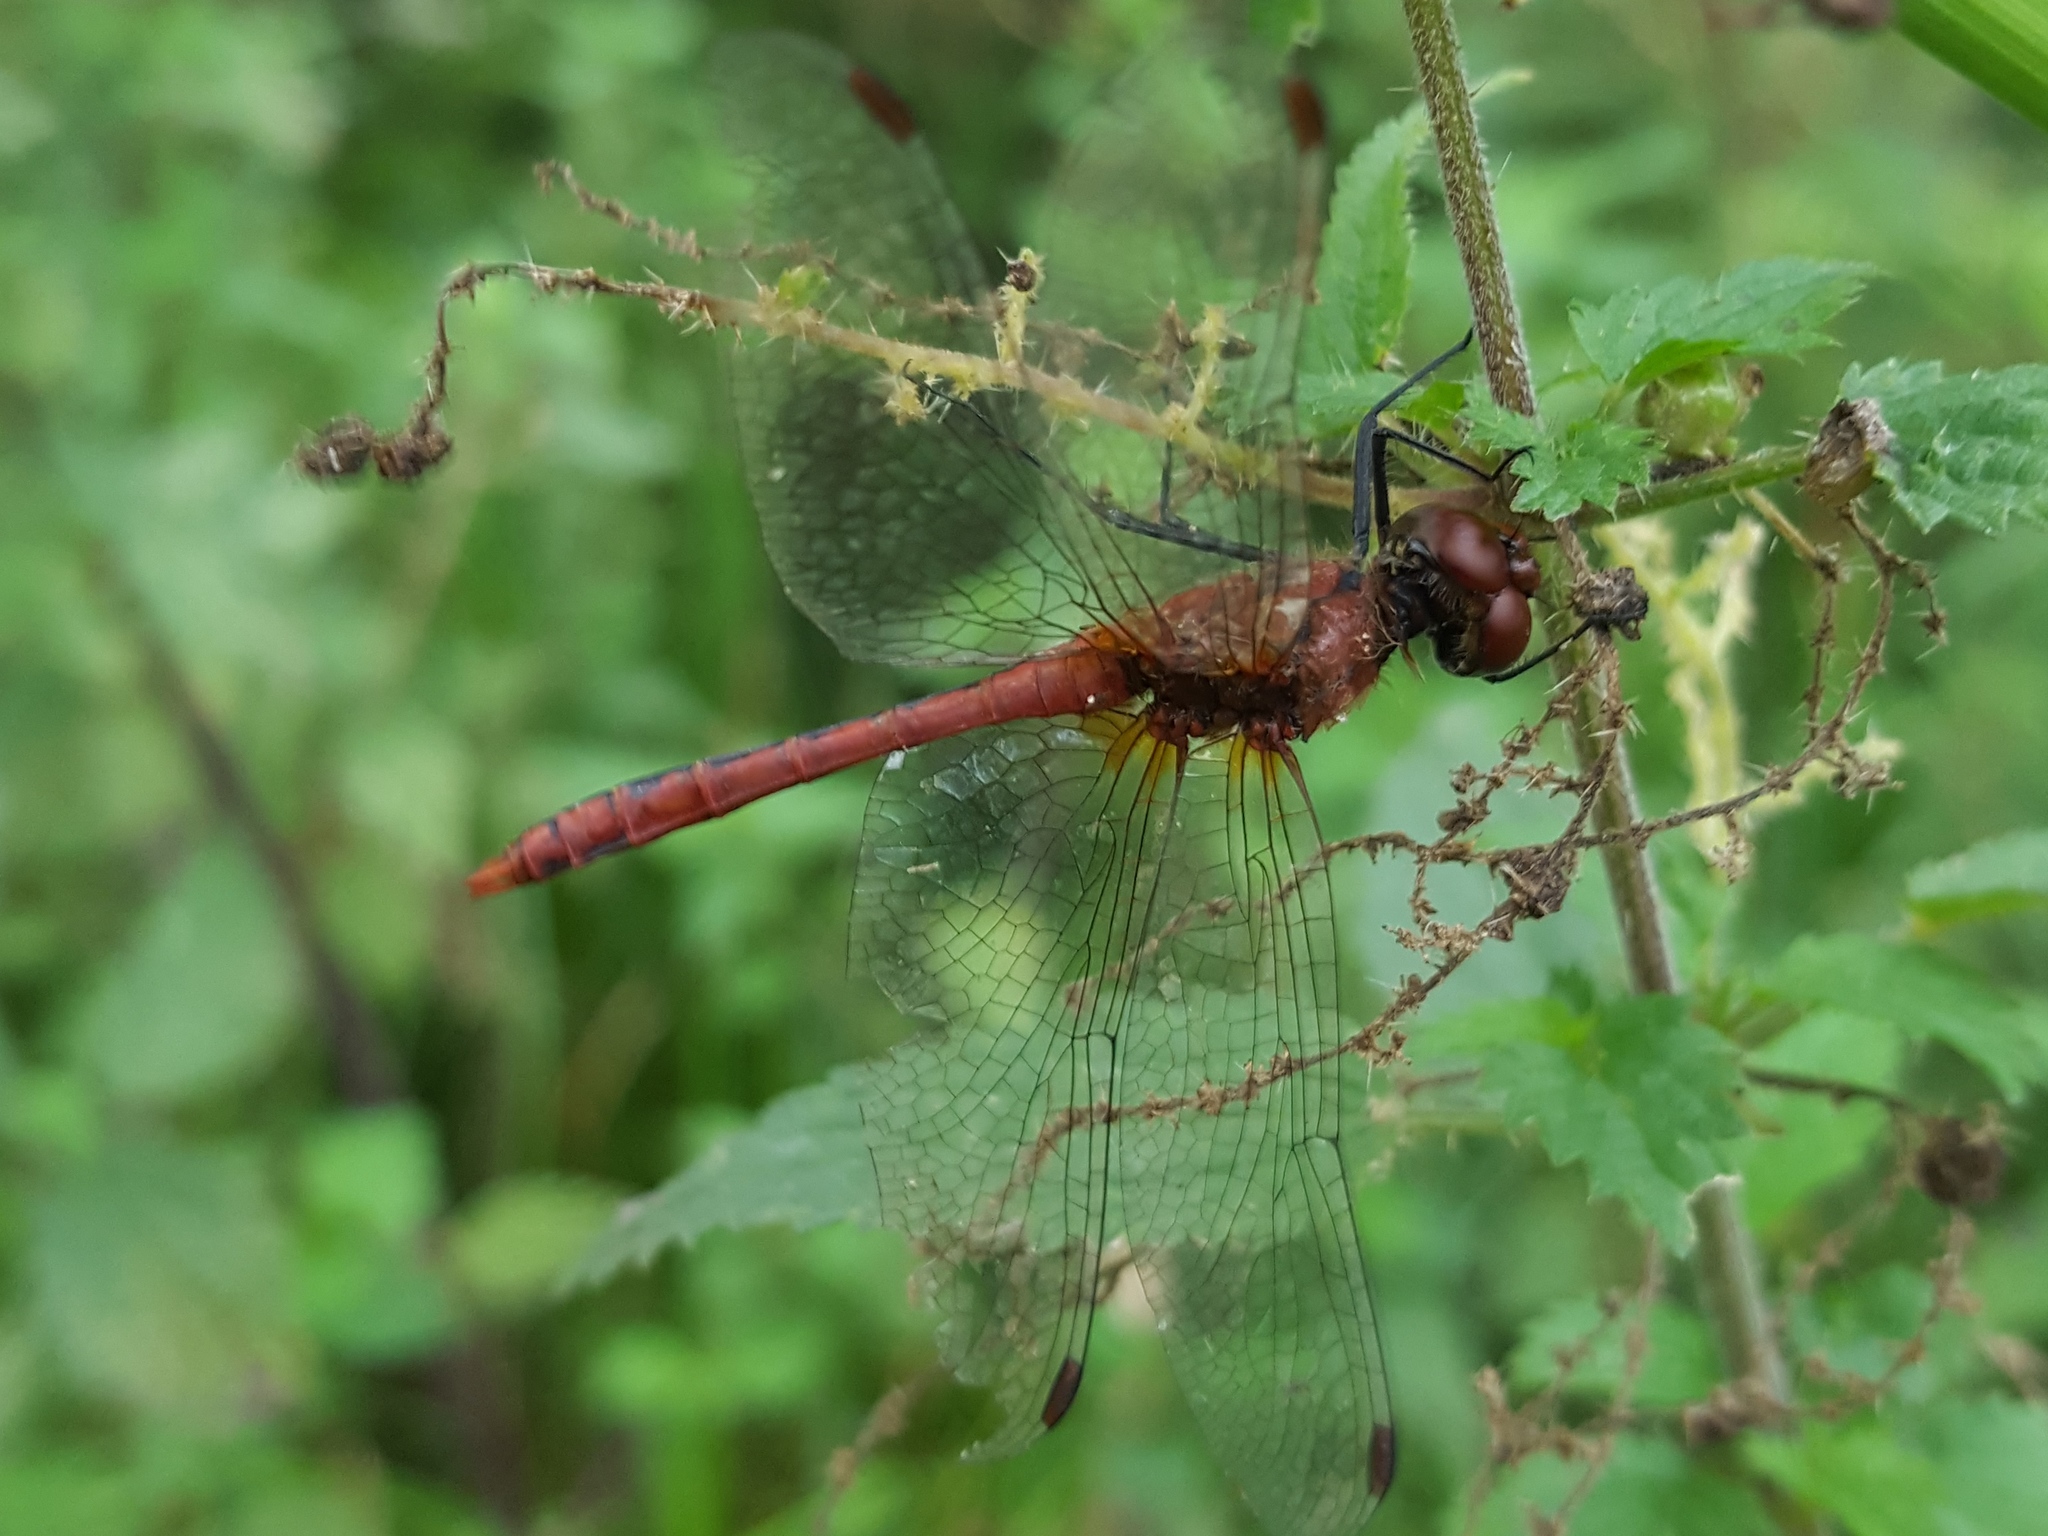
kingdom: Animalia
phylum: Arthropoda
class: Insecta
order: Odonata
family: Libellulidae
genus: Sympetrum
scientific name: Sympetrum sanguineum
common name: Ruddy darter
